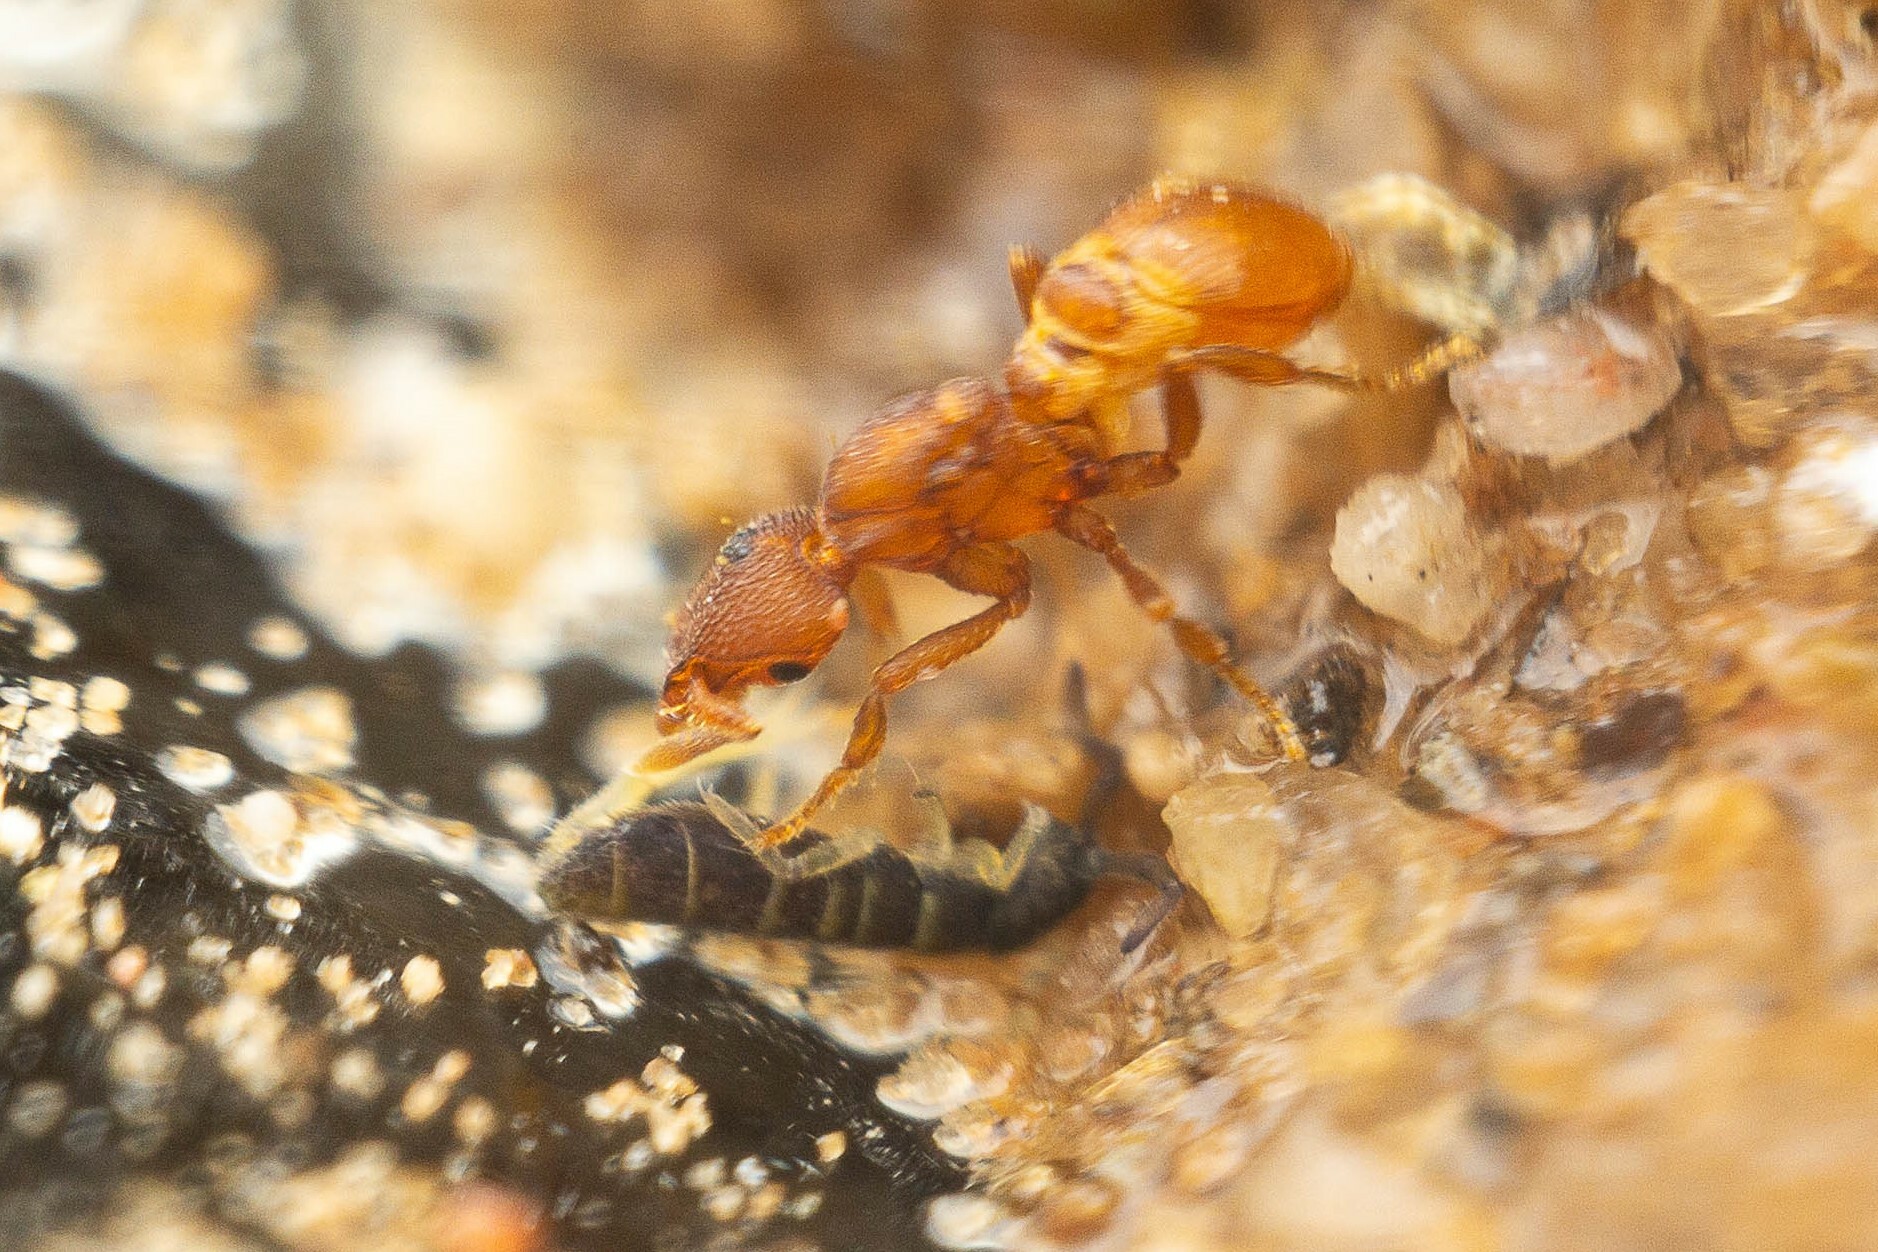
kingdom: Animalia
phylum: Arthropoda
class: Insecta
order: Hymenoptera
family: Formicidae
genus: Pyramica
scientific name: Pyramica membranifera
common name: Ant
